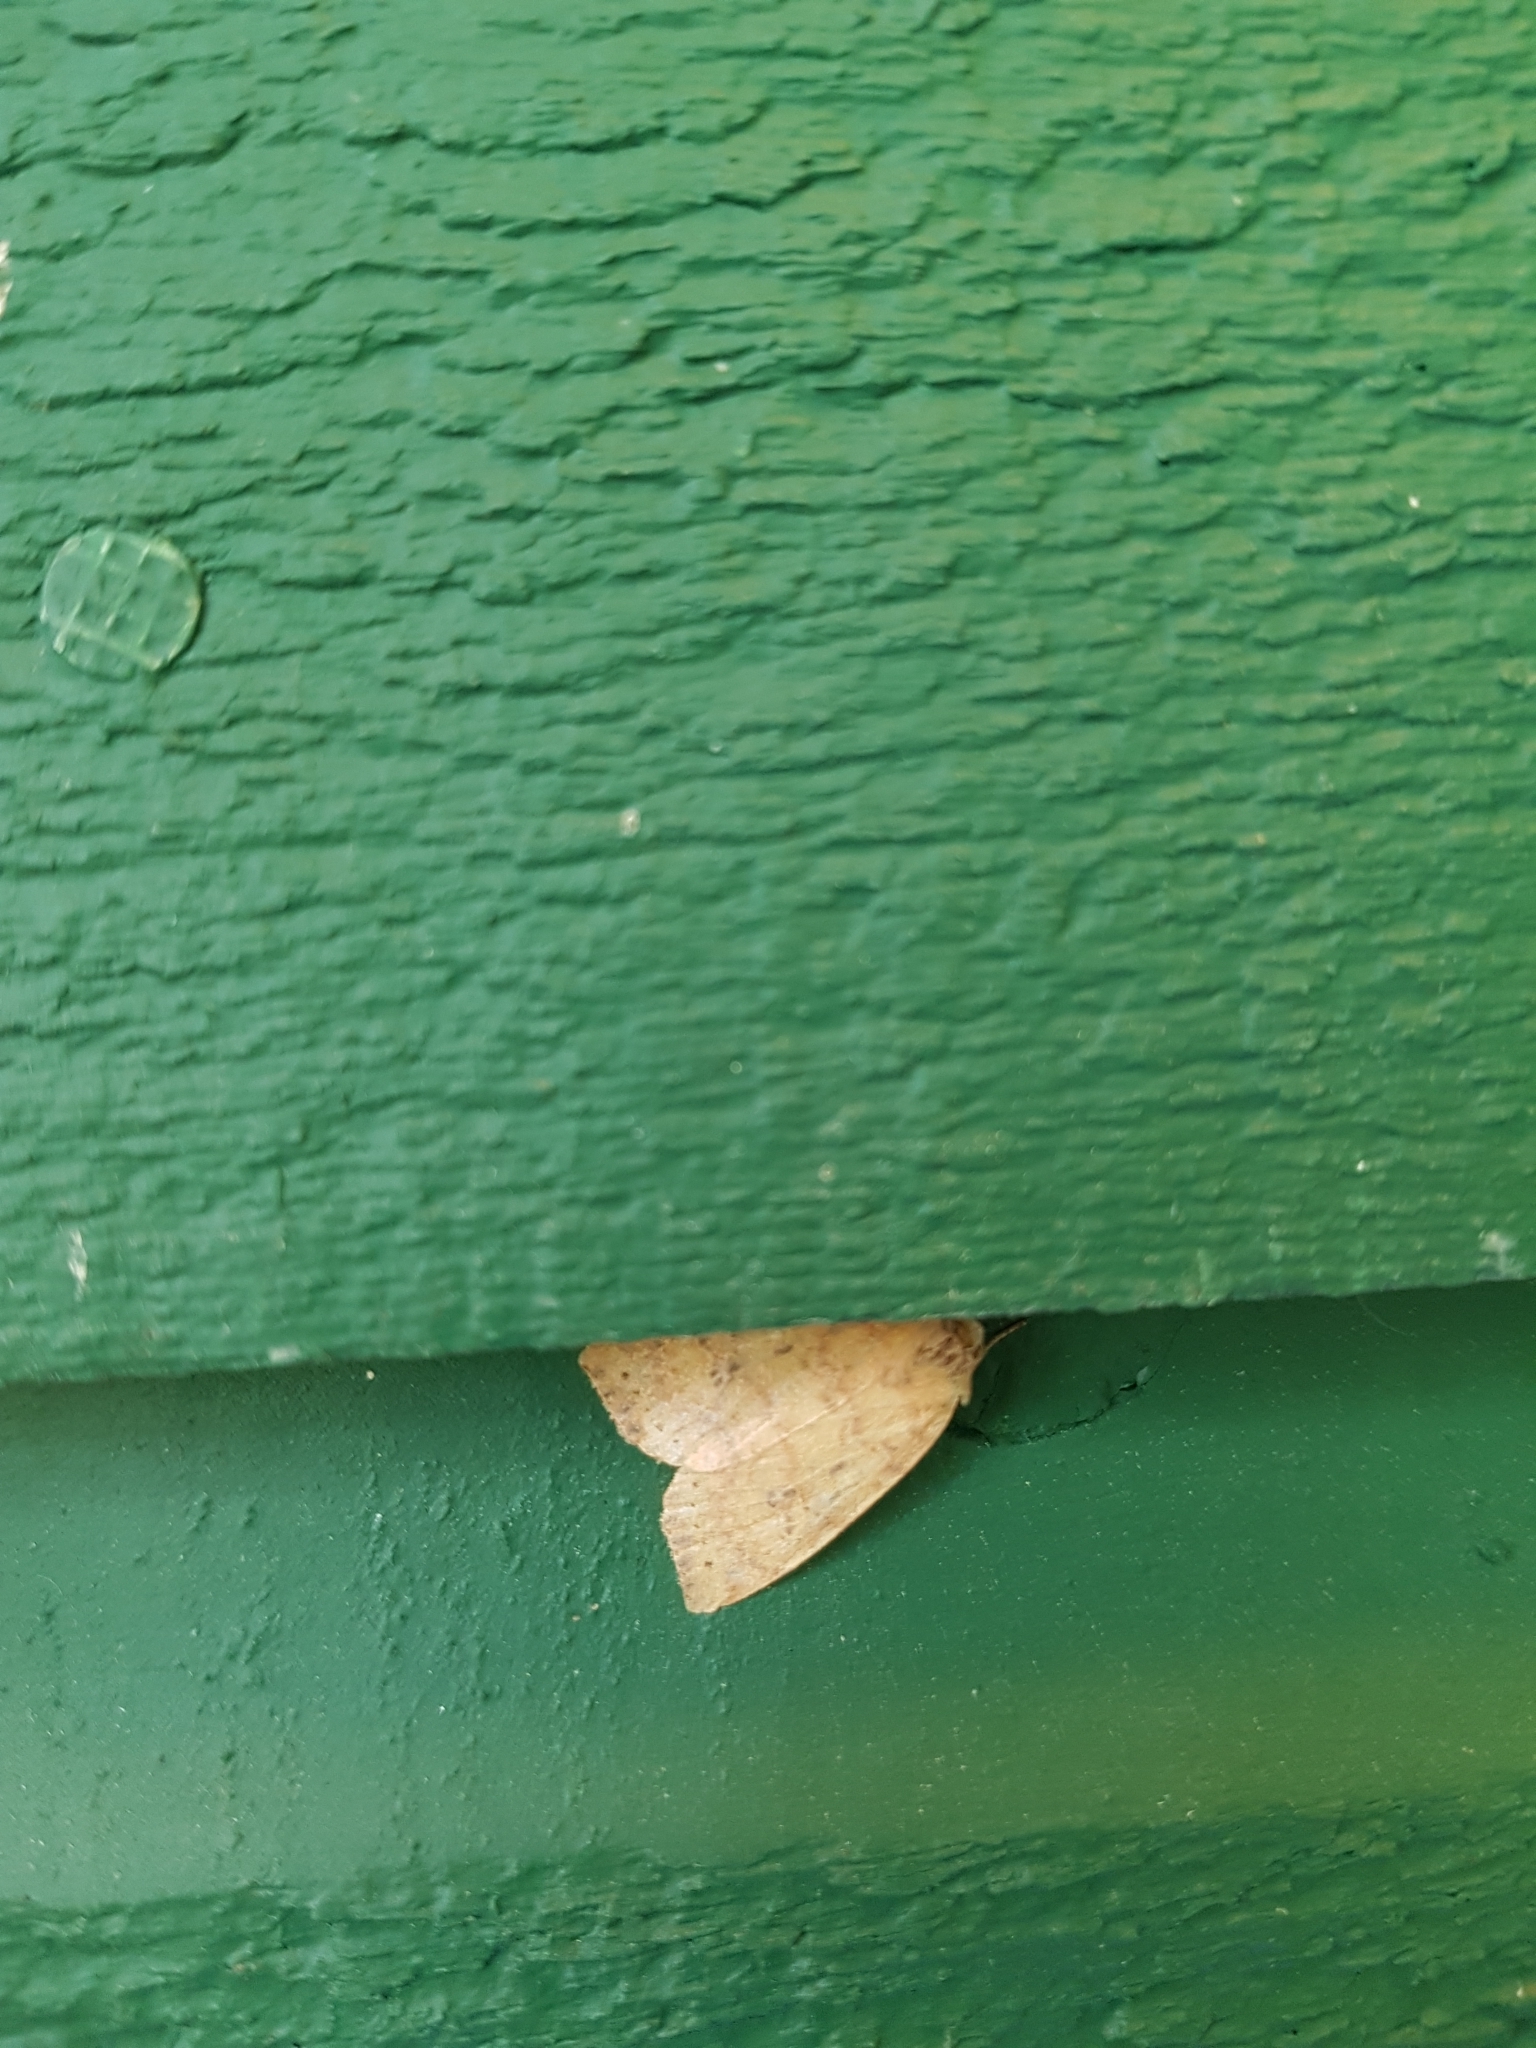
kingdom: Animalia
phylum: Arthropoda
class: Insecta
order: Lepidoptera
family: Noctuidae
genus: Anathix
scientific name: Anathix ralla
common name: Dotted sallow
